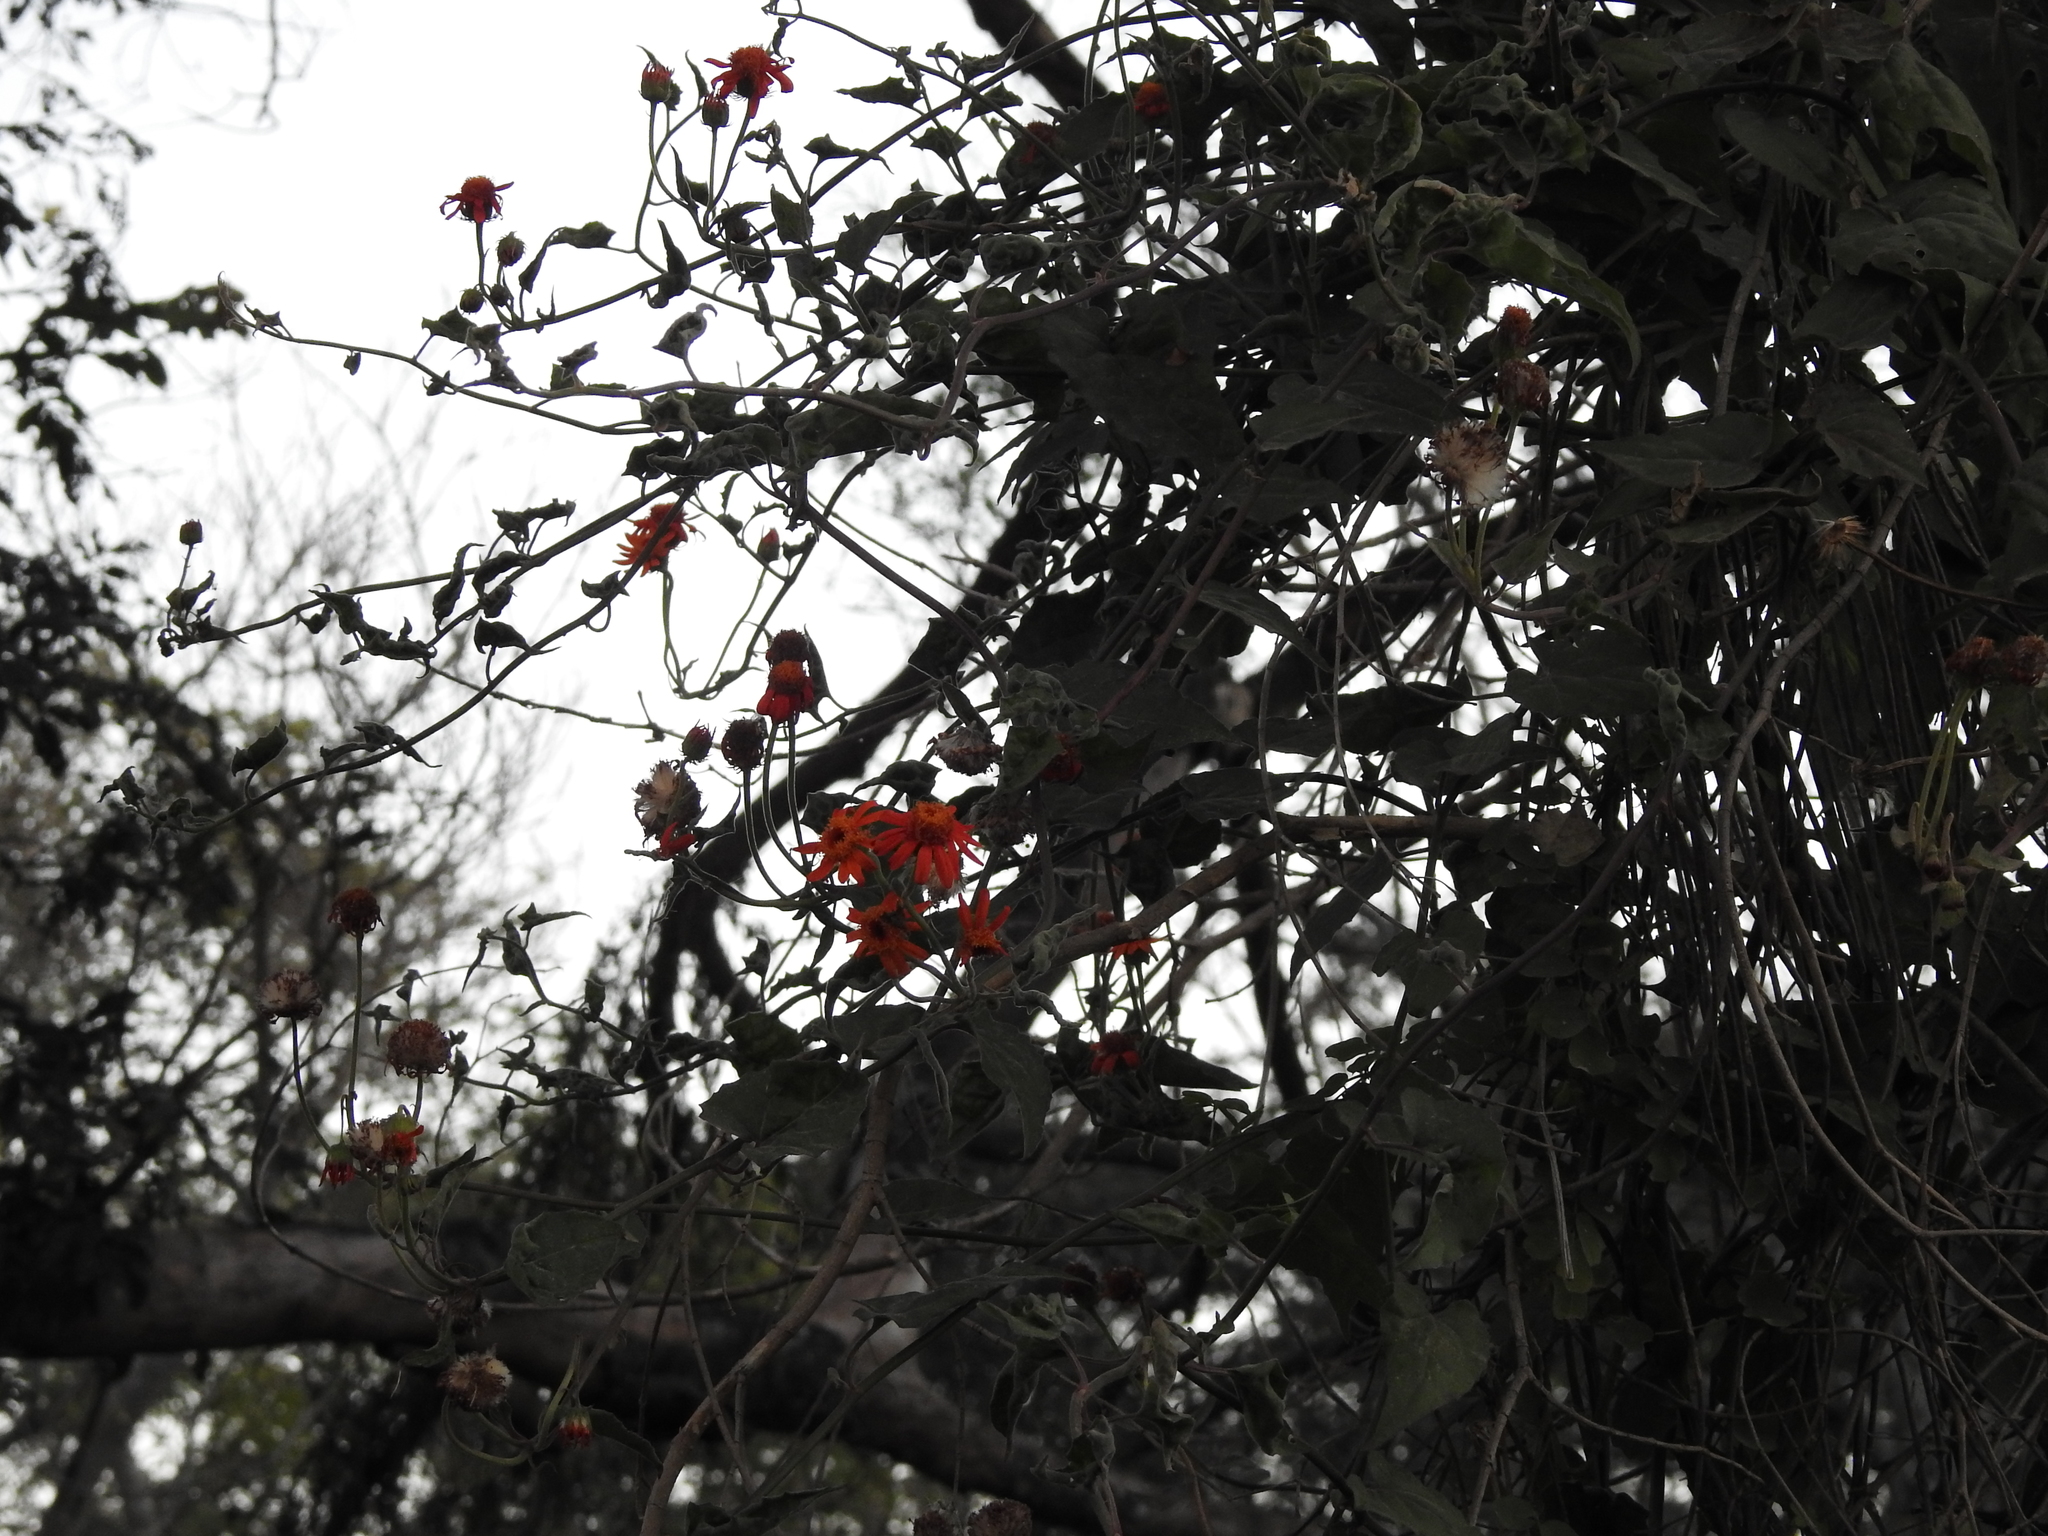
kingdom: Plantae
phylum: Tracheophyta
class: Magnoliopsida
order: Asterales
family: Asteraceae
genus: Pseudogynoxys
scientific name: Pseudogynoxys cumingii
